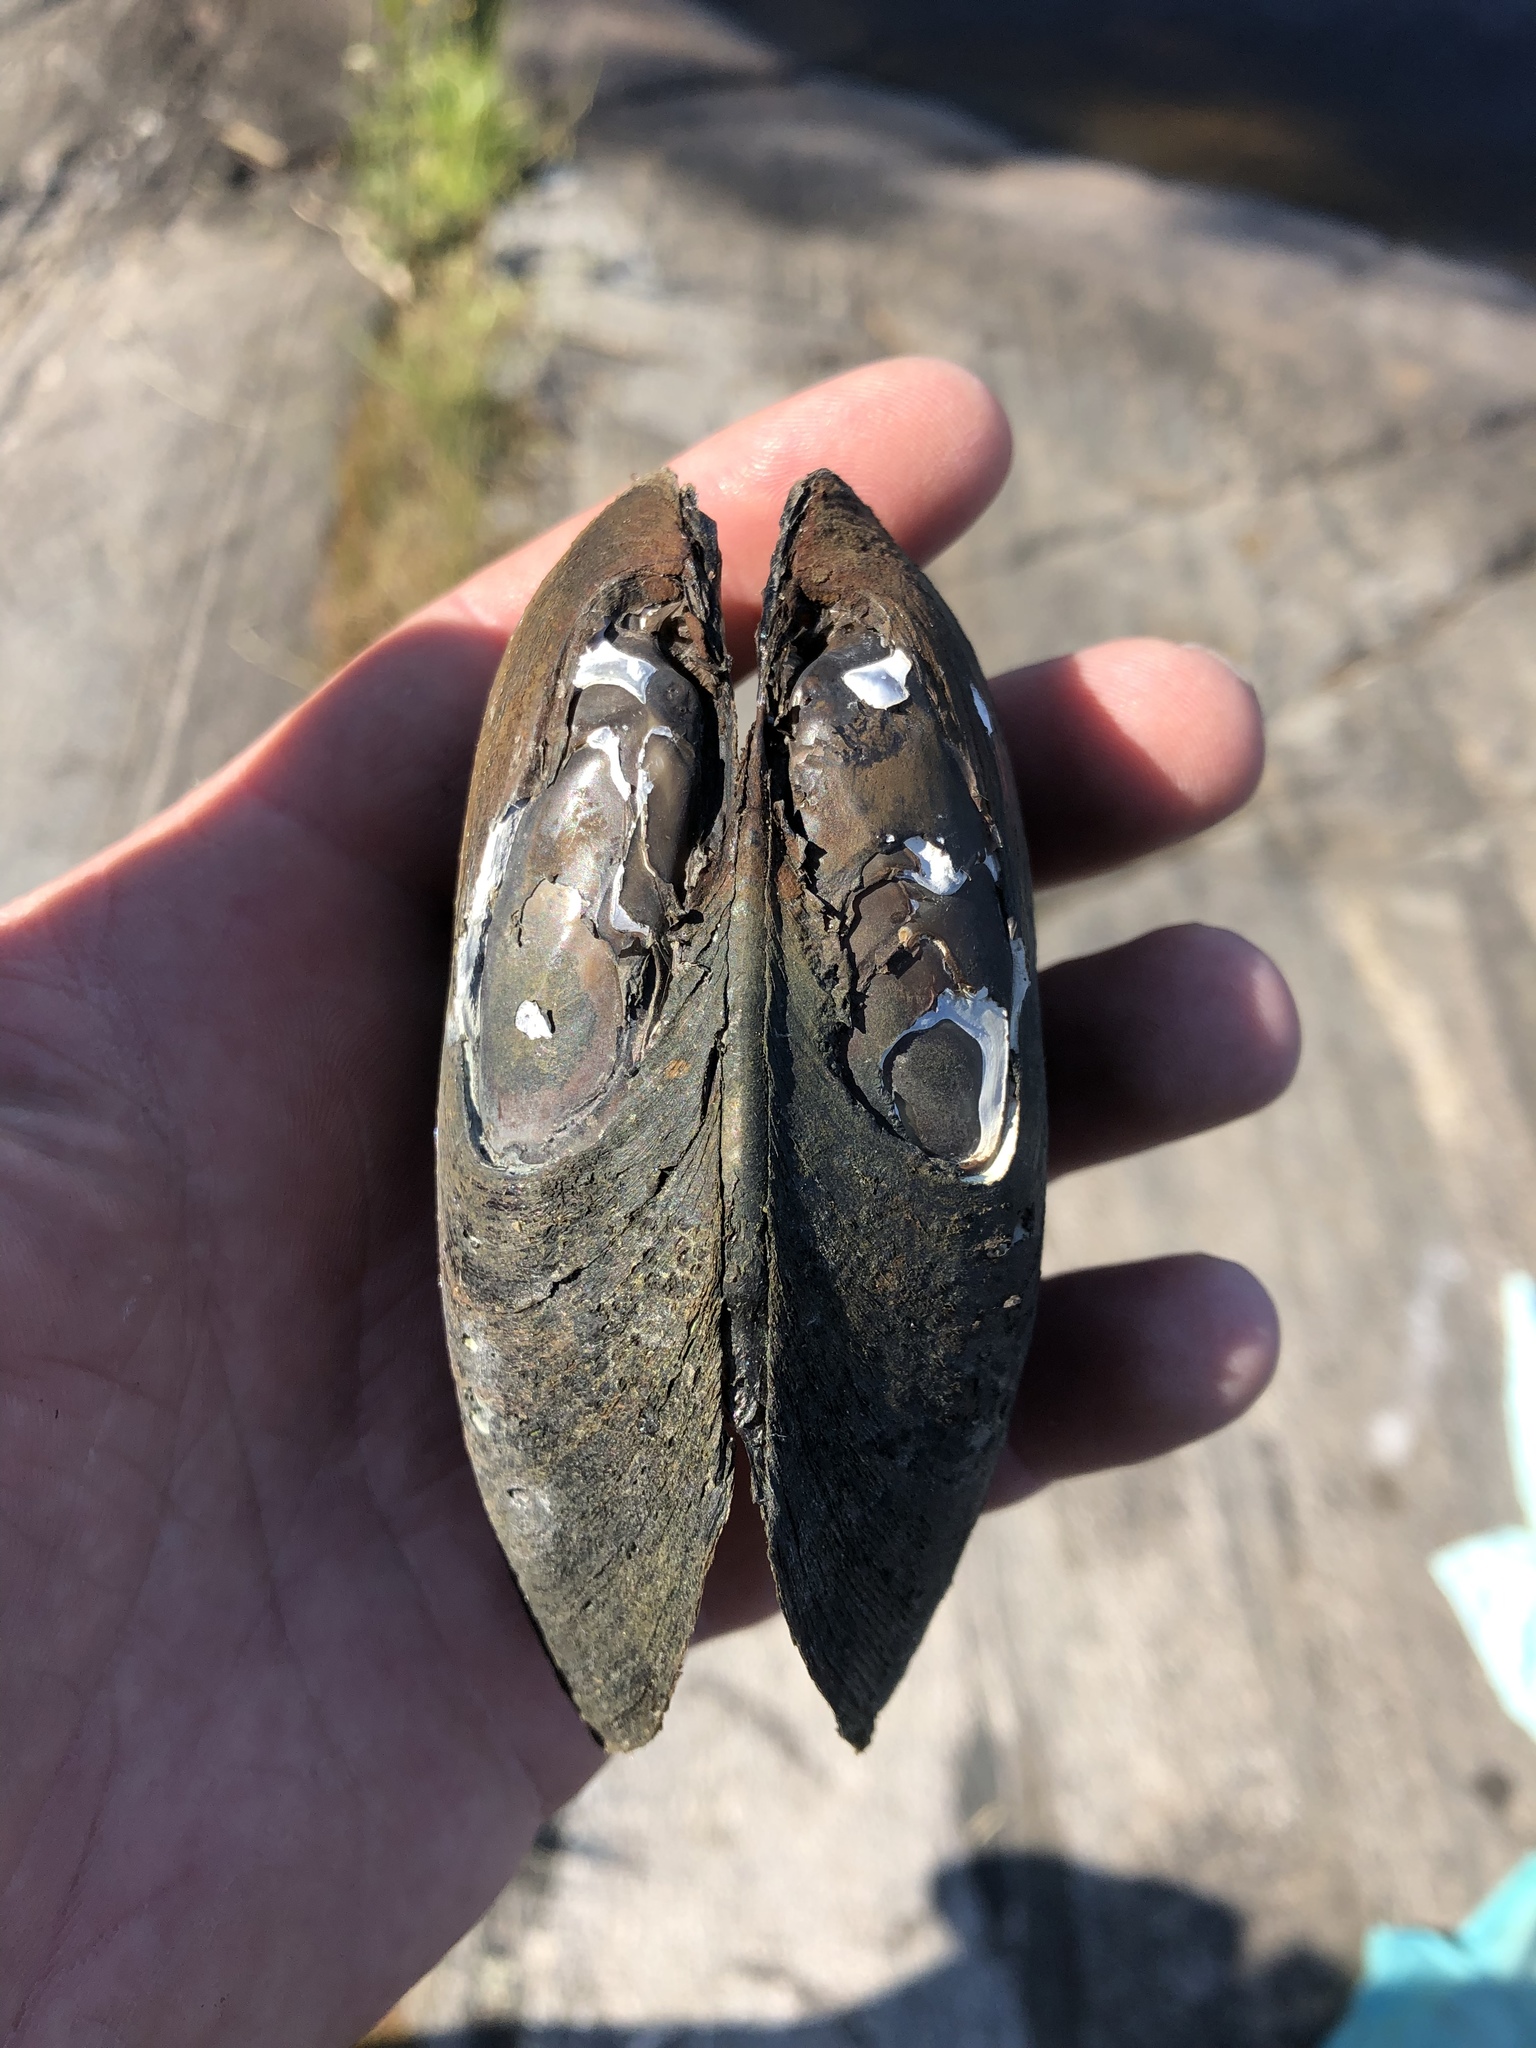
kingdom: Animalia
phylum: Mollusca
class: Bivalvia
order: Unionida
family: Unionidae
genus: Elliptio
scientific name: Elliptio complanata
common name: Eastern elliptio
